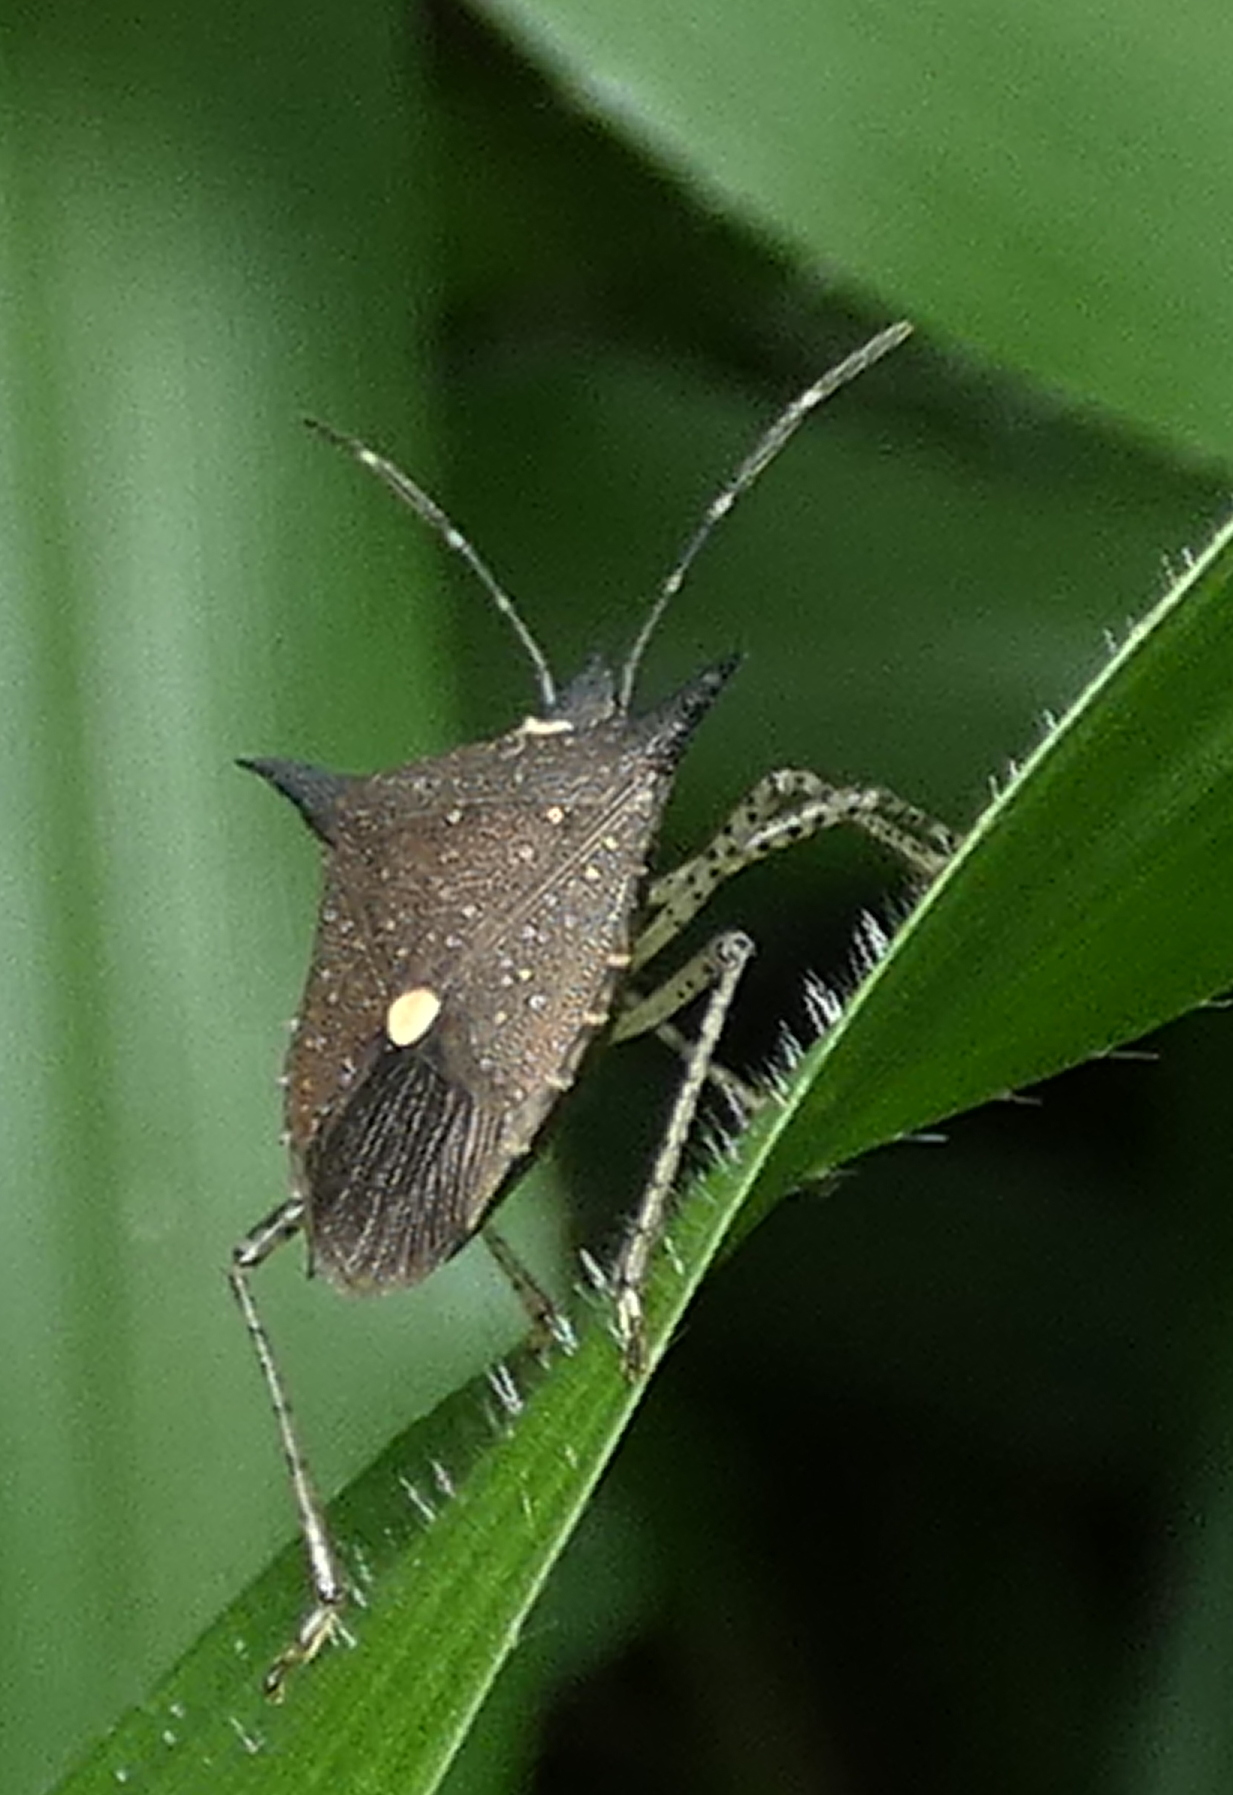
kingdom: Animalia
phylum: Arthropoda
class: Insecta
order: Hemiptera
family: Pentatomidae
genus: Proxys
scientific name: Proxys albopunctulatus
